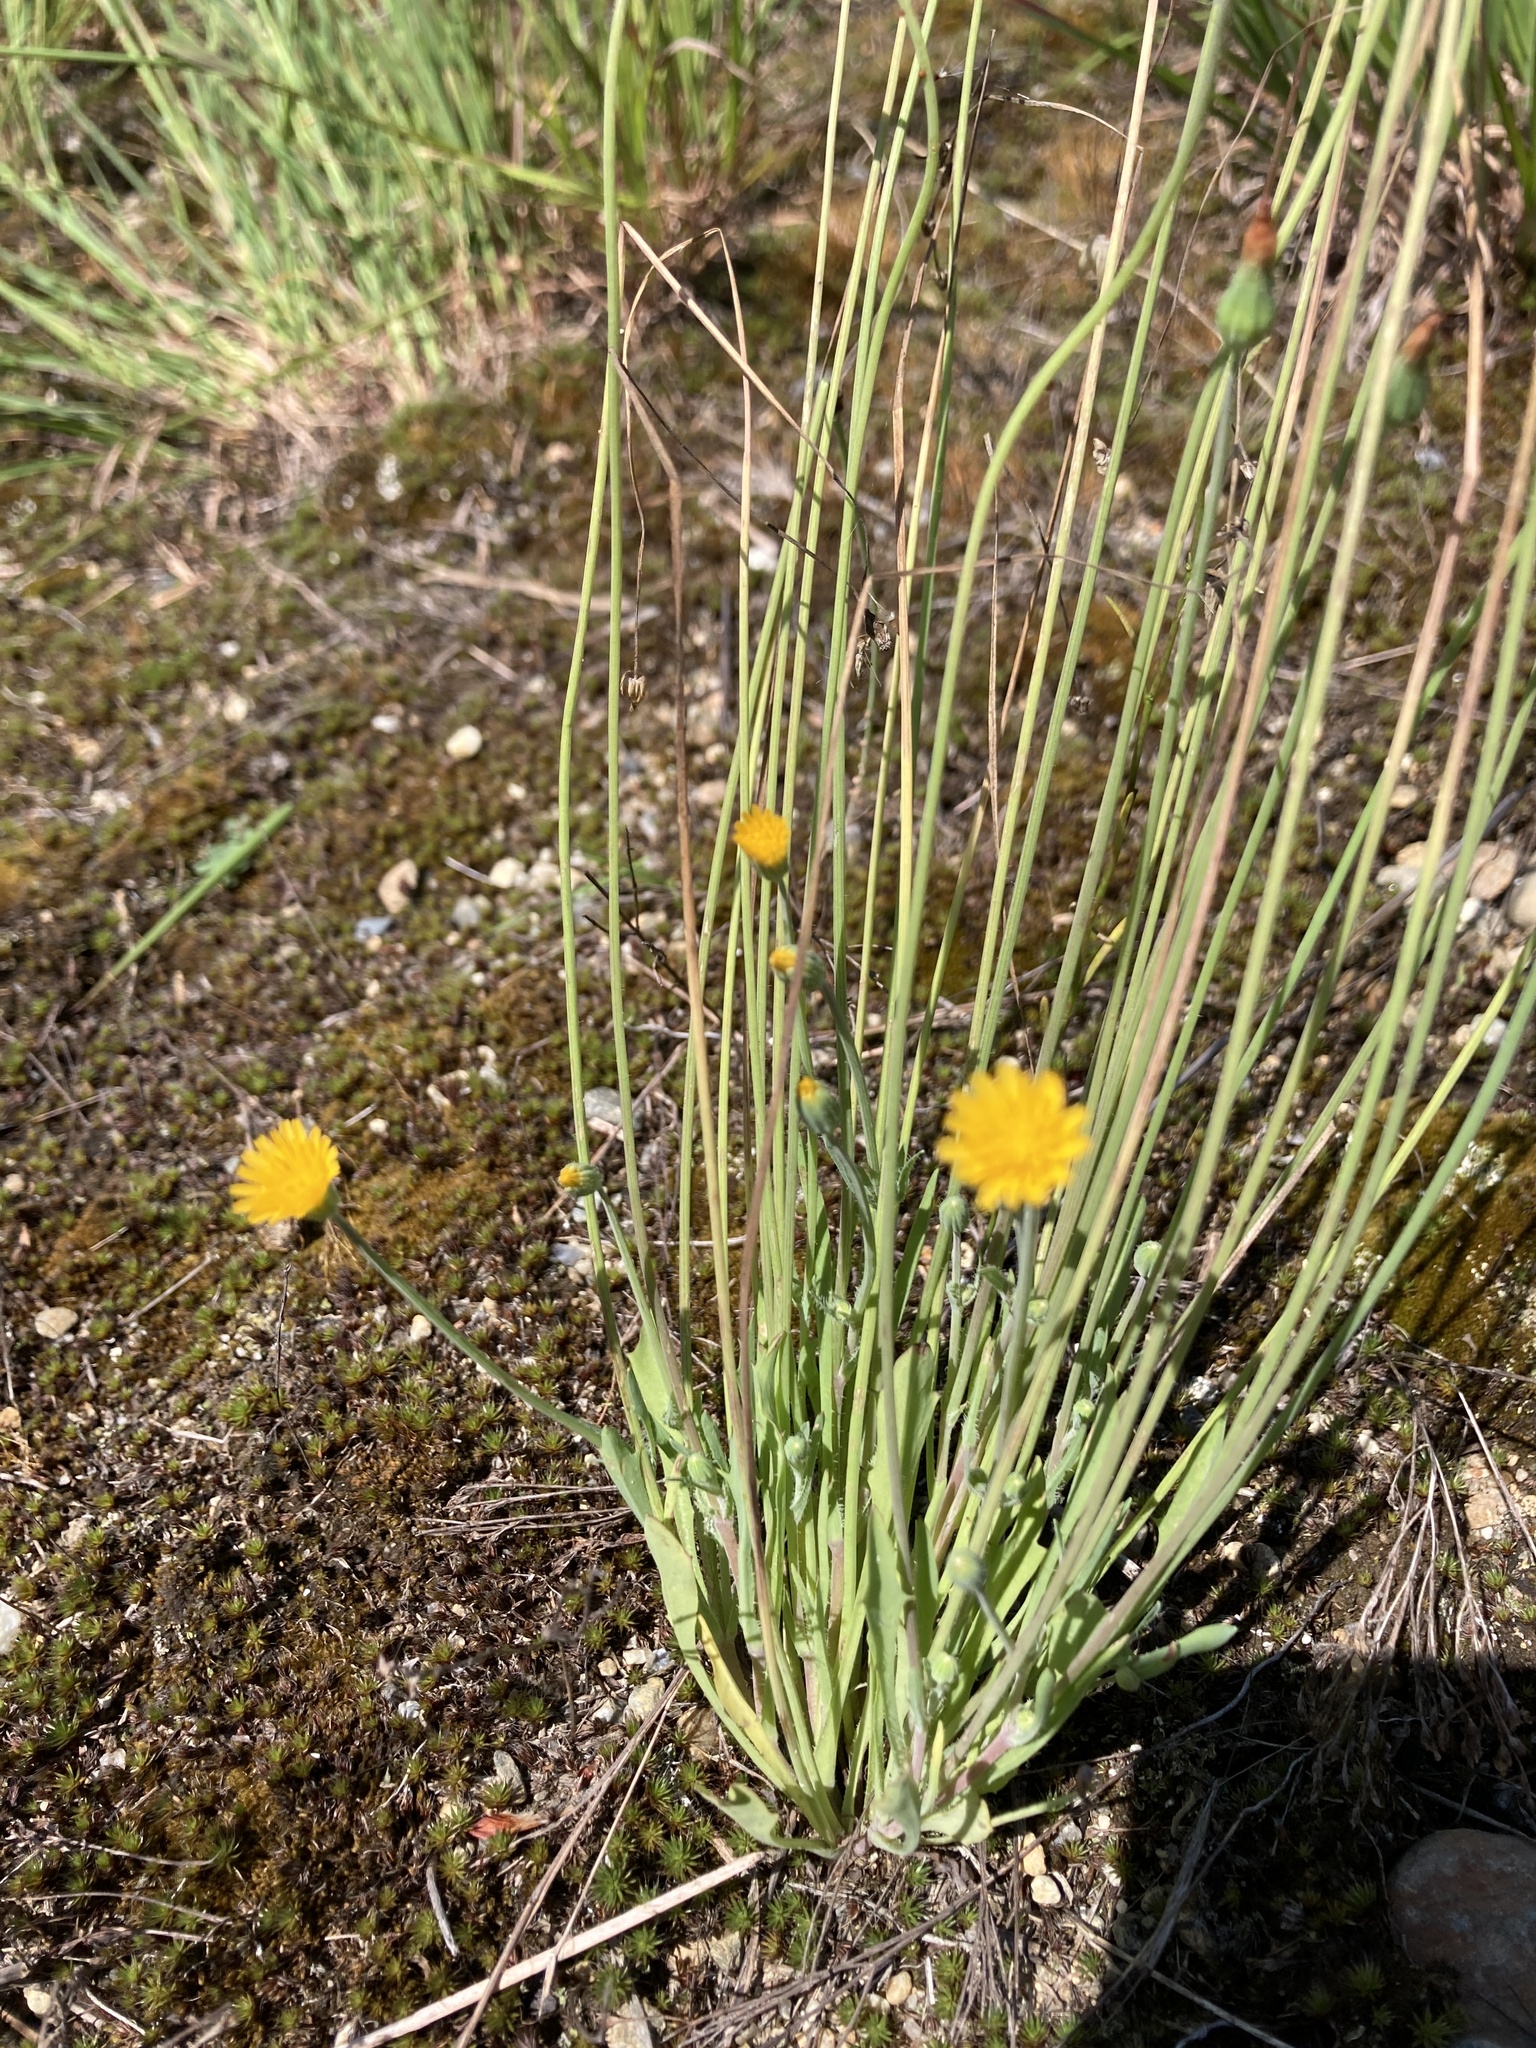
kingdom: Plantae
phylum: Tracheophyta
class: Magnoliopsida
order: Asterales
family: Asteraceae
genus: Krigia
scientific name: Krigia virginica
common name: Virginia dwarf-dandelion
